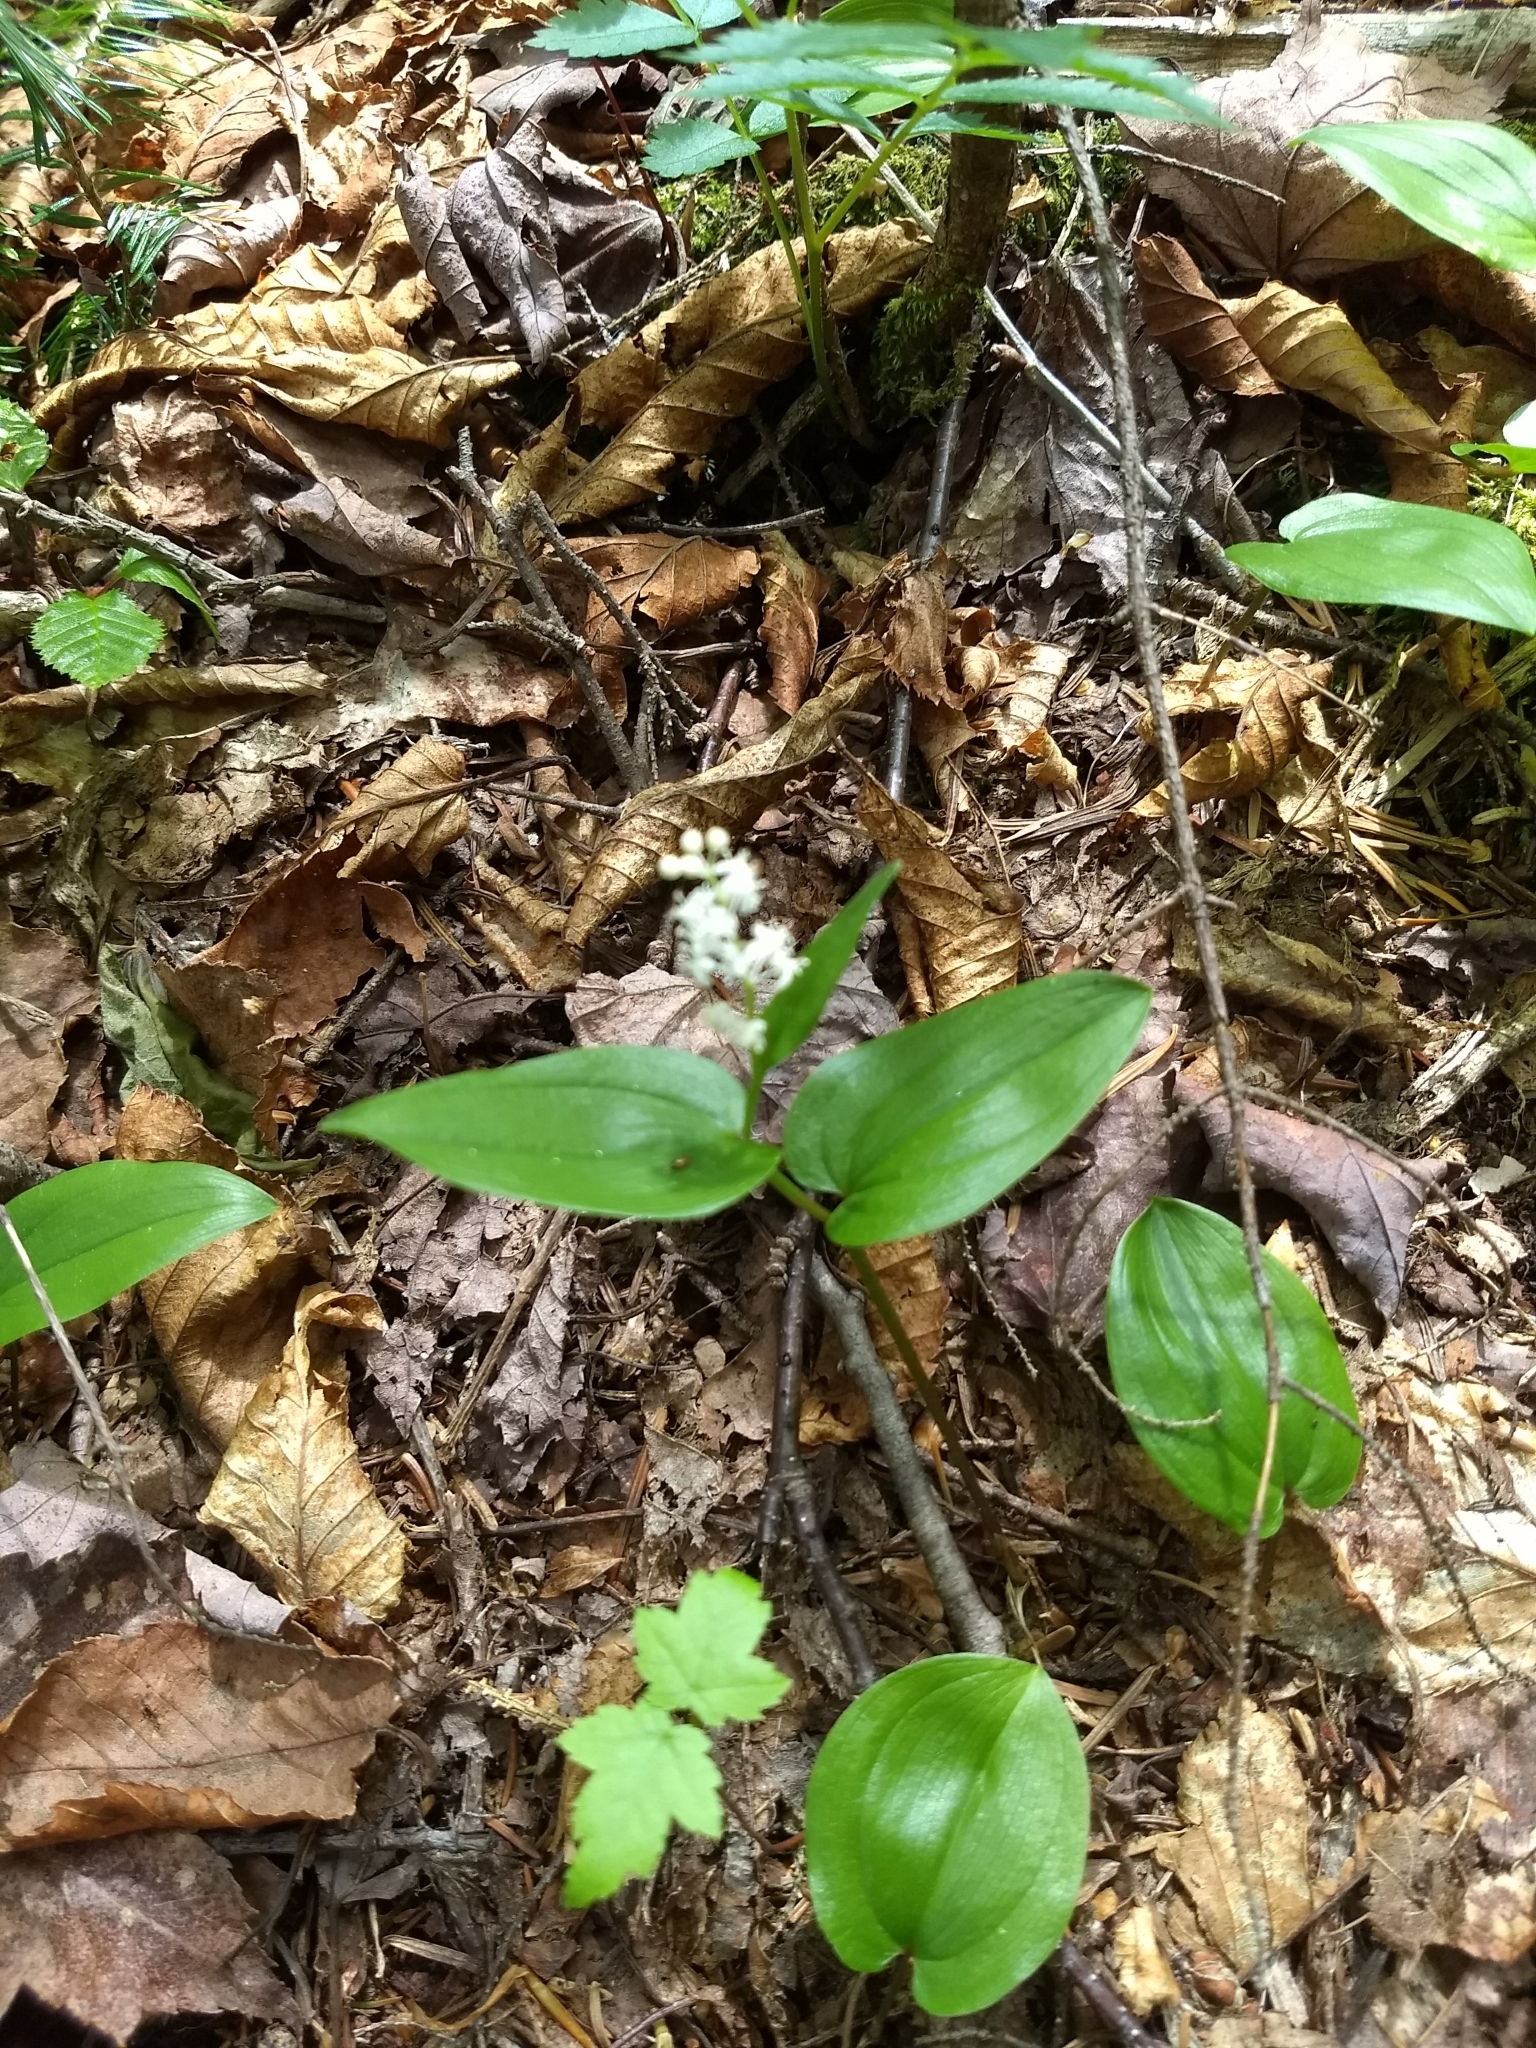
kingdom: Plantae
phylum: Tracheophyta
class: Liliopsida
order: Asparagales
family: Asparagaceae
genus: Maianthemum
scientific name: Maianthemum canadense
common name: False lily-of-the-valley
